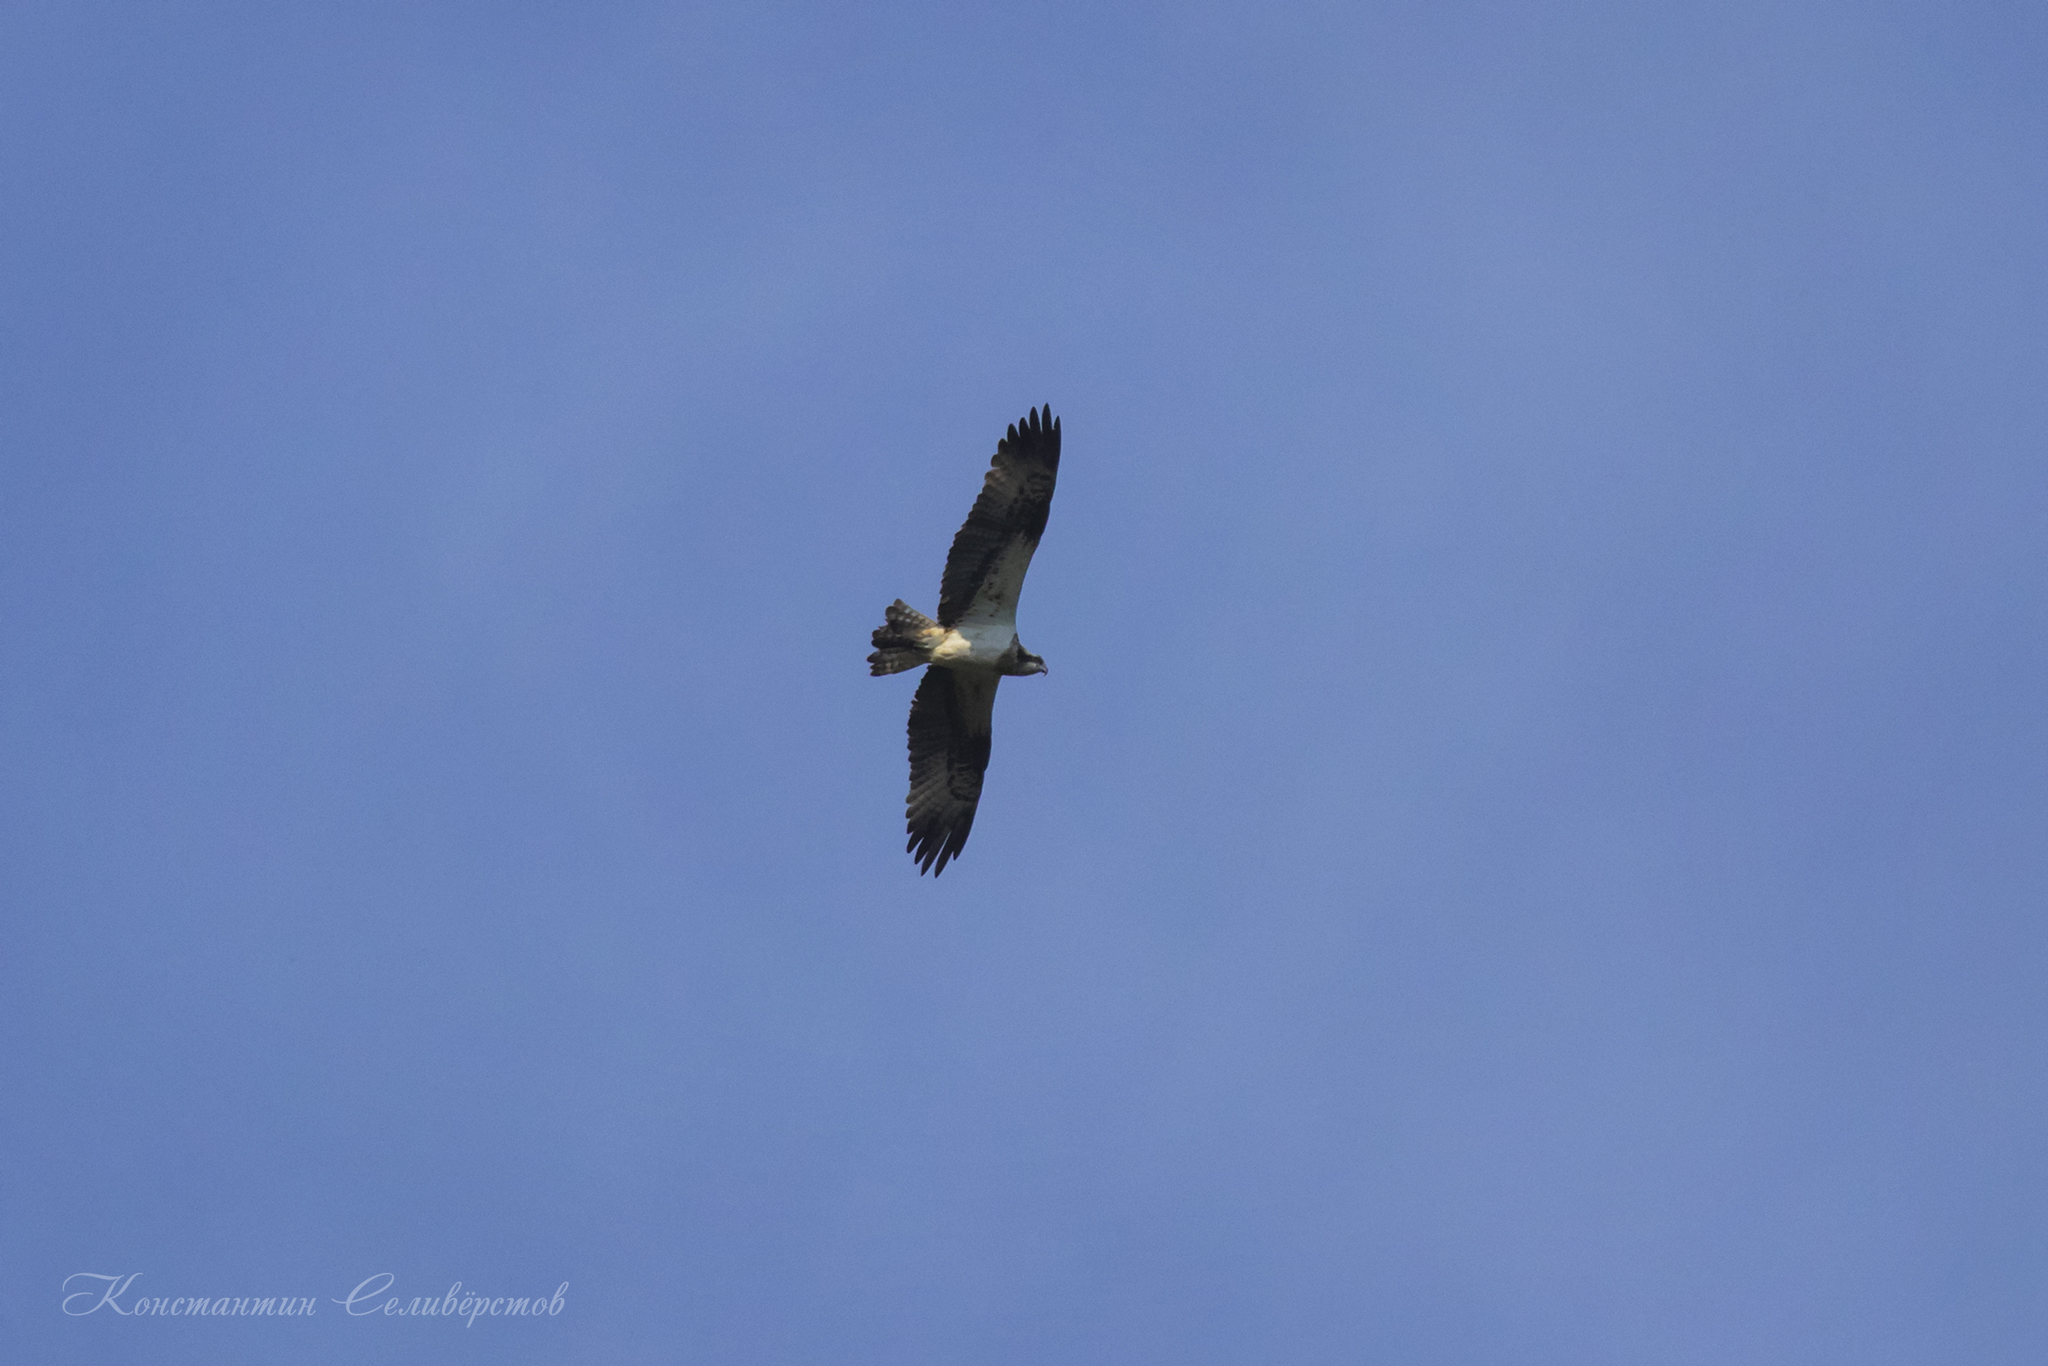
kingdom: Animalia
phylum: Chordata
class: Aves
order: Accipitriformes
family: Pandionidae
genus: Pandion
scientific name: Pandion haliaetus
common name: Osprey
